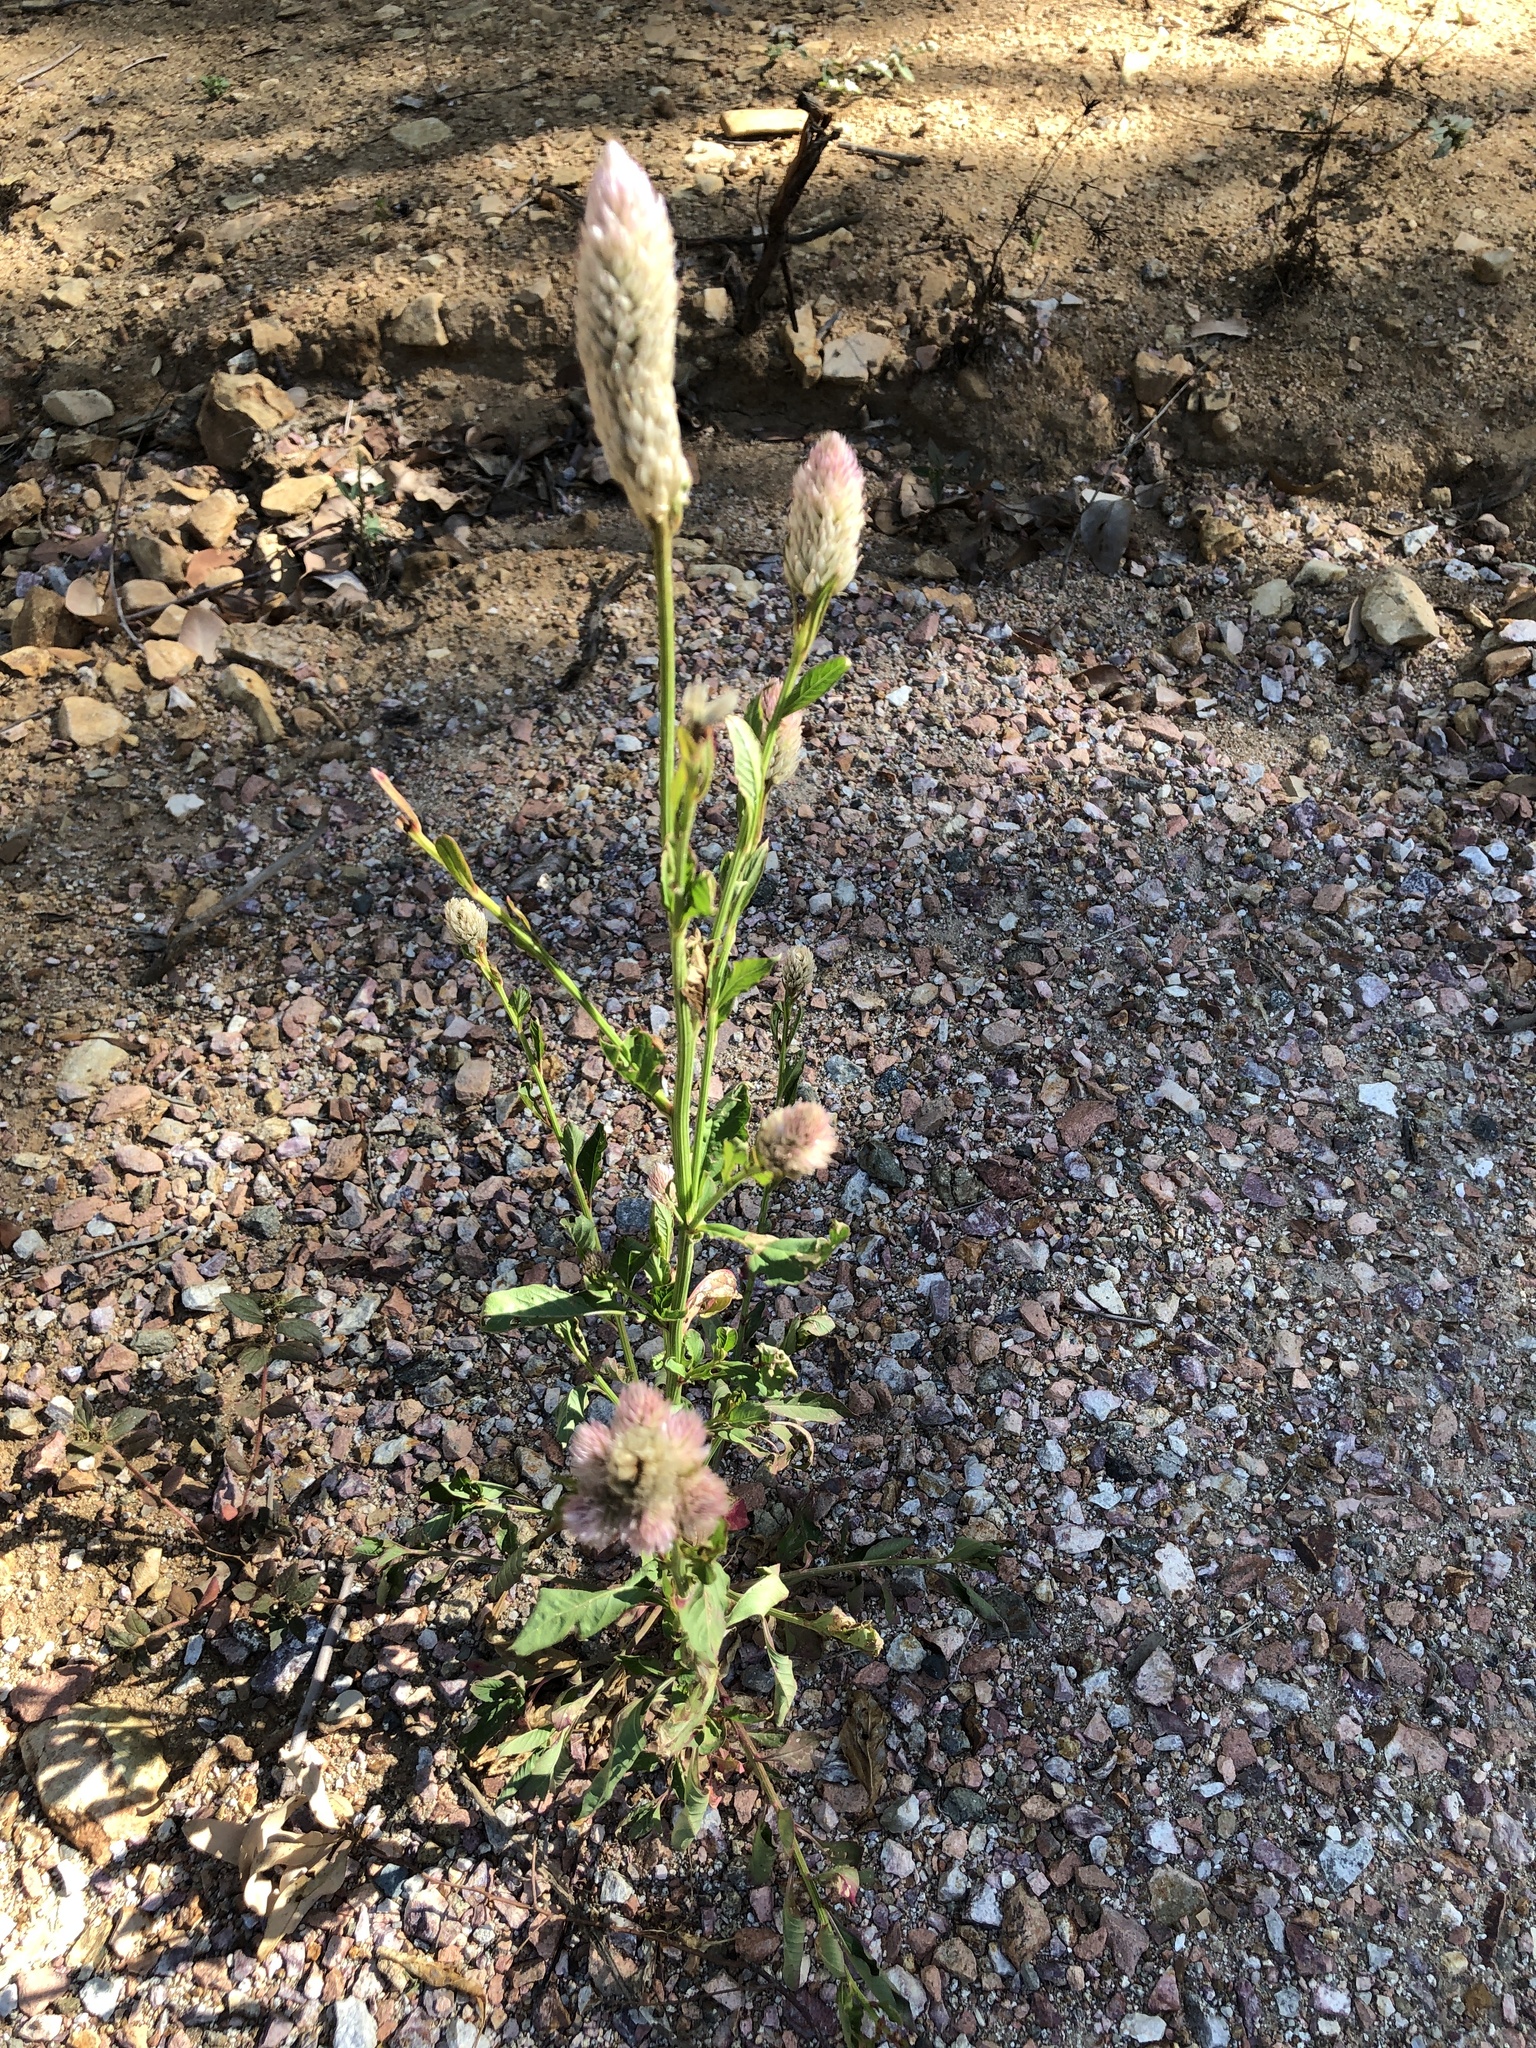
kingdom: Plantae
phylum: Tracheophyta
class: Magnoliopsida
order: Caryophyllales
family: Amaranthaceae
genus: Celosia
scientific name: Celosia argentea
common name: Feather cockscomb
